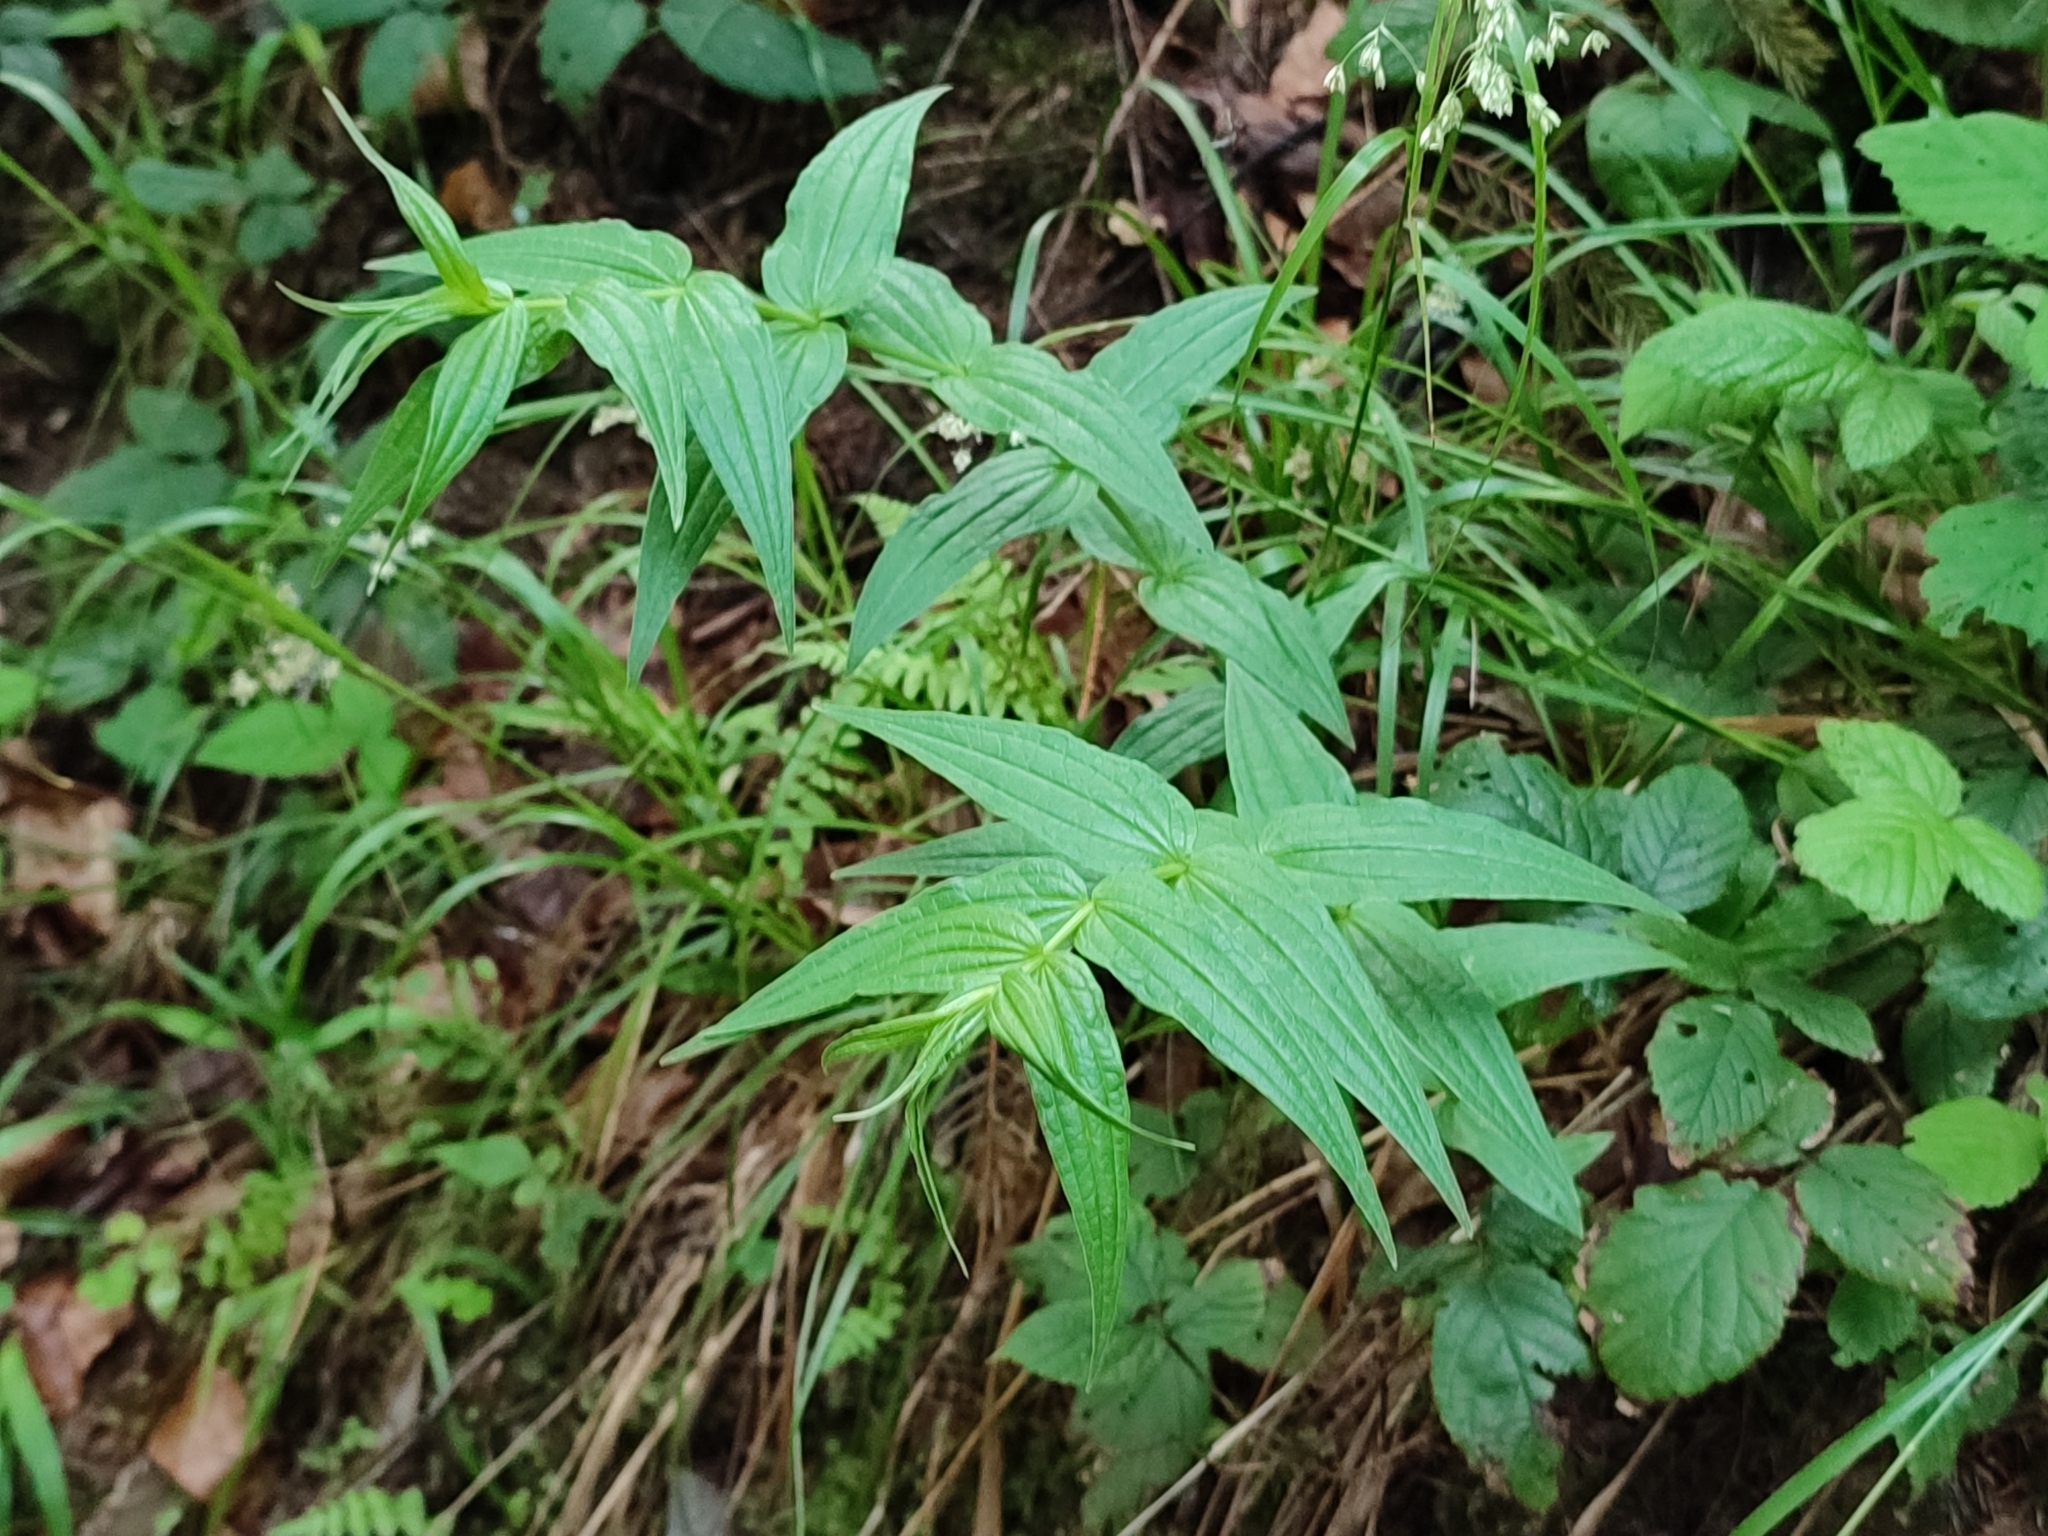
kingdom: Plantae
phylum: Tracheophyta
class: Magnoliopsida
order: Gentianales
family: Gentianaceae
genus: Gentiana
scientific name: Gentiana asclepiadea
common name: Willow gentian
